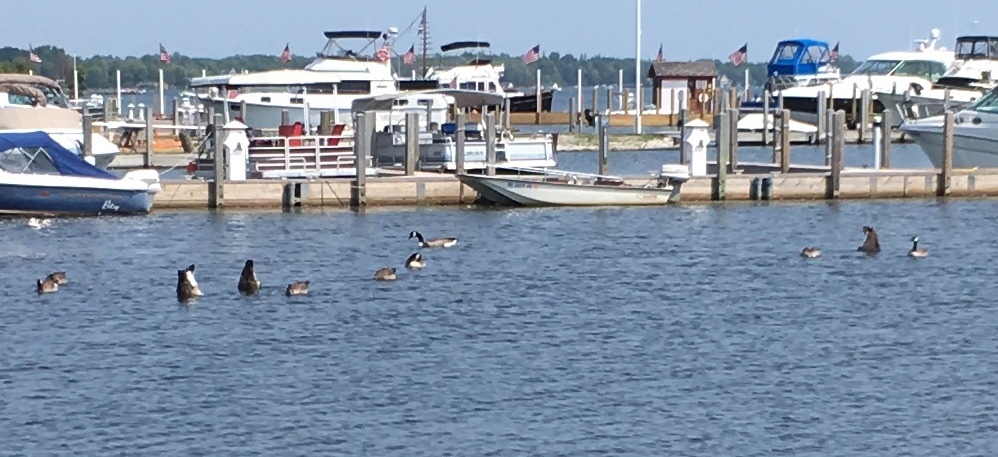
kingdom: Animalia
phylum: Chordata
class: Aves
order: Anseriformes
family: Anatidae
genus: Branta
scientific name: Branta canadensis
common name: Canada goose
